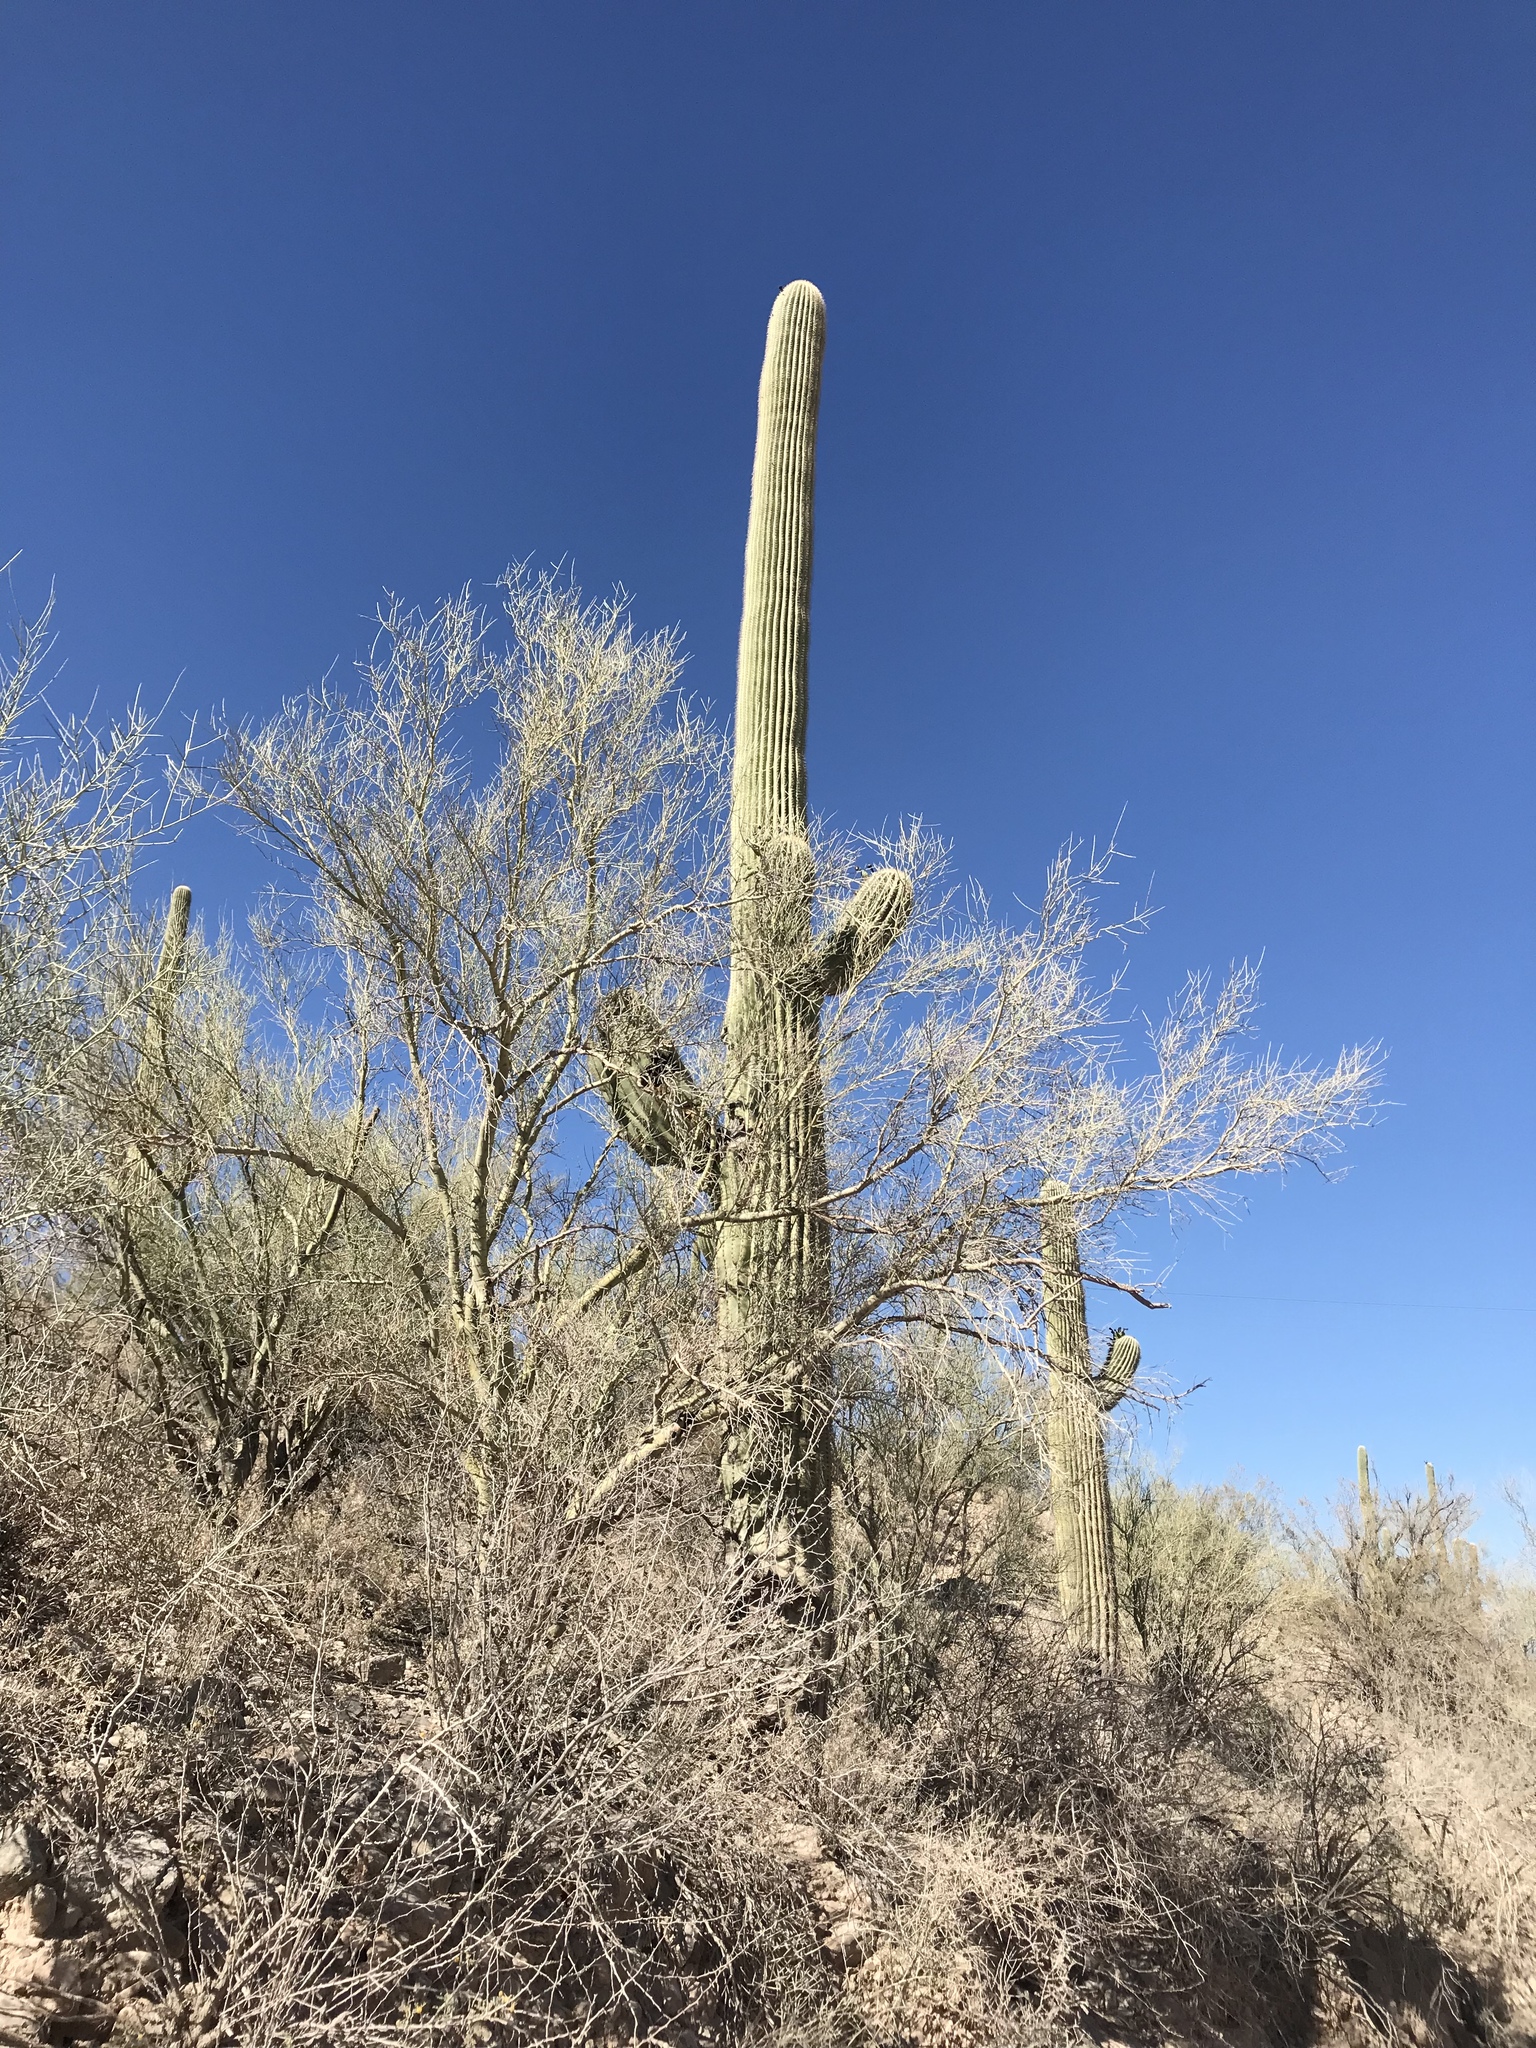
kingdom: Plantae
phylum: Tracheophyta
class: Magnoliopsida
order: Caryophyllales
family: Cactaceae
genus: Carnegiea
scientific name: Carnegiea gigantea
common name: Saguaro
